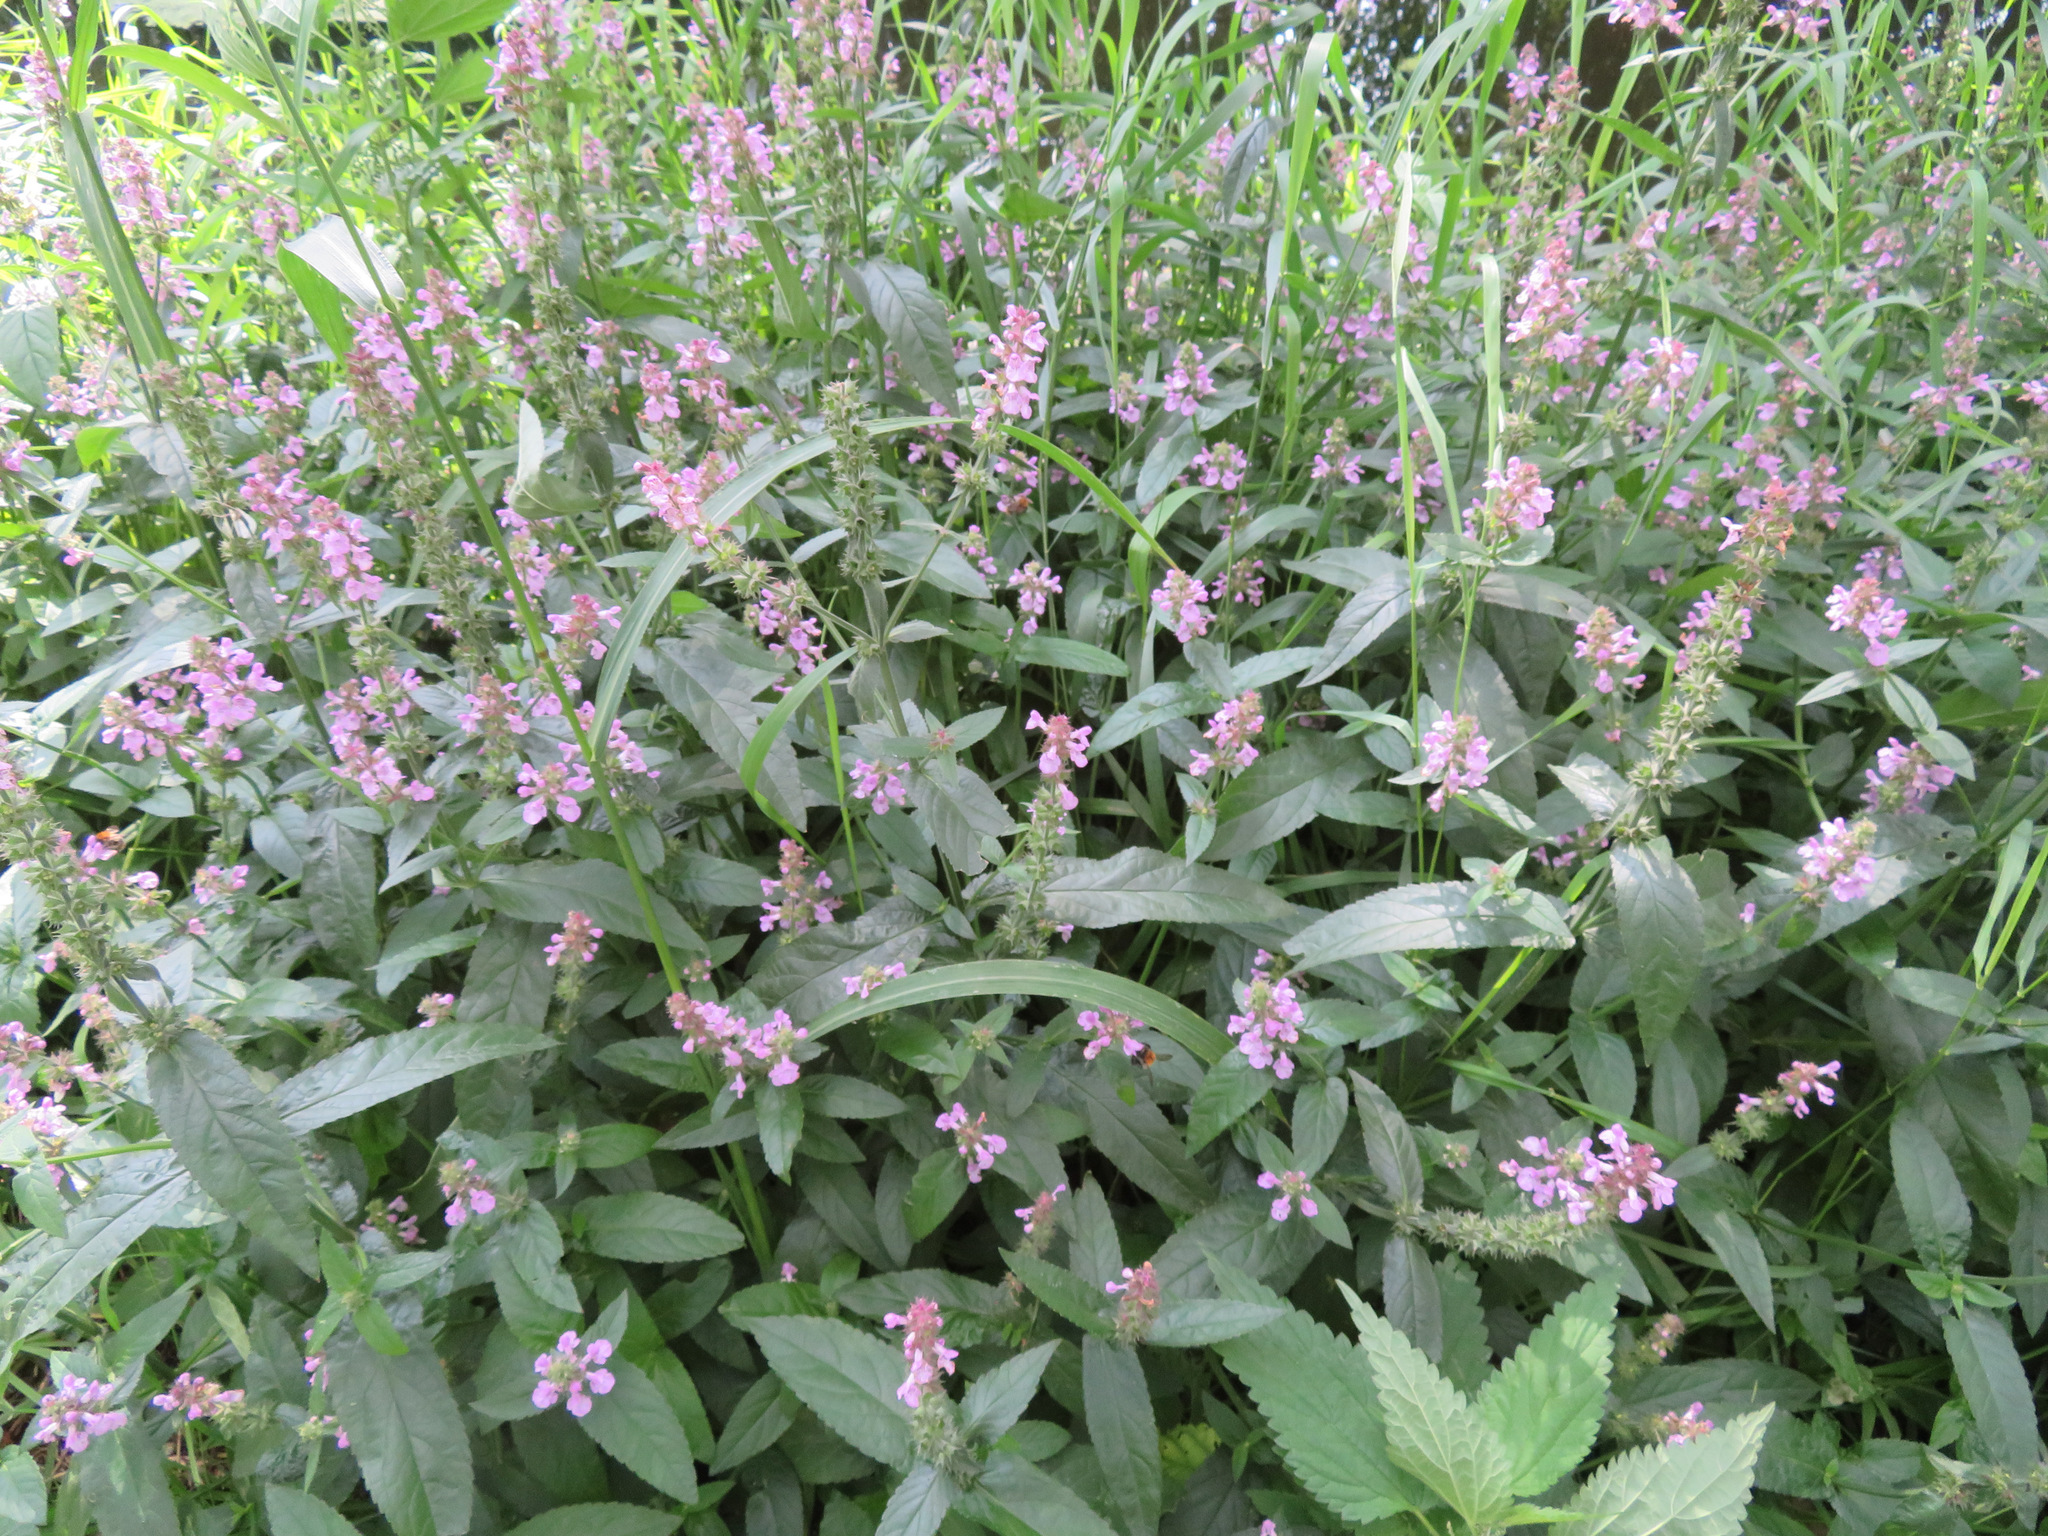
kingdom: Plantae
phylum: Tracheophyta
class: Magnoliopsida
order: Lamiales
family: Lamiaceae
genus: Stachys
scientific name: Stachys palustris
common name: Marsh woundwort
